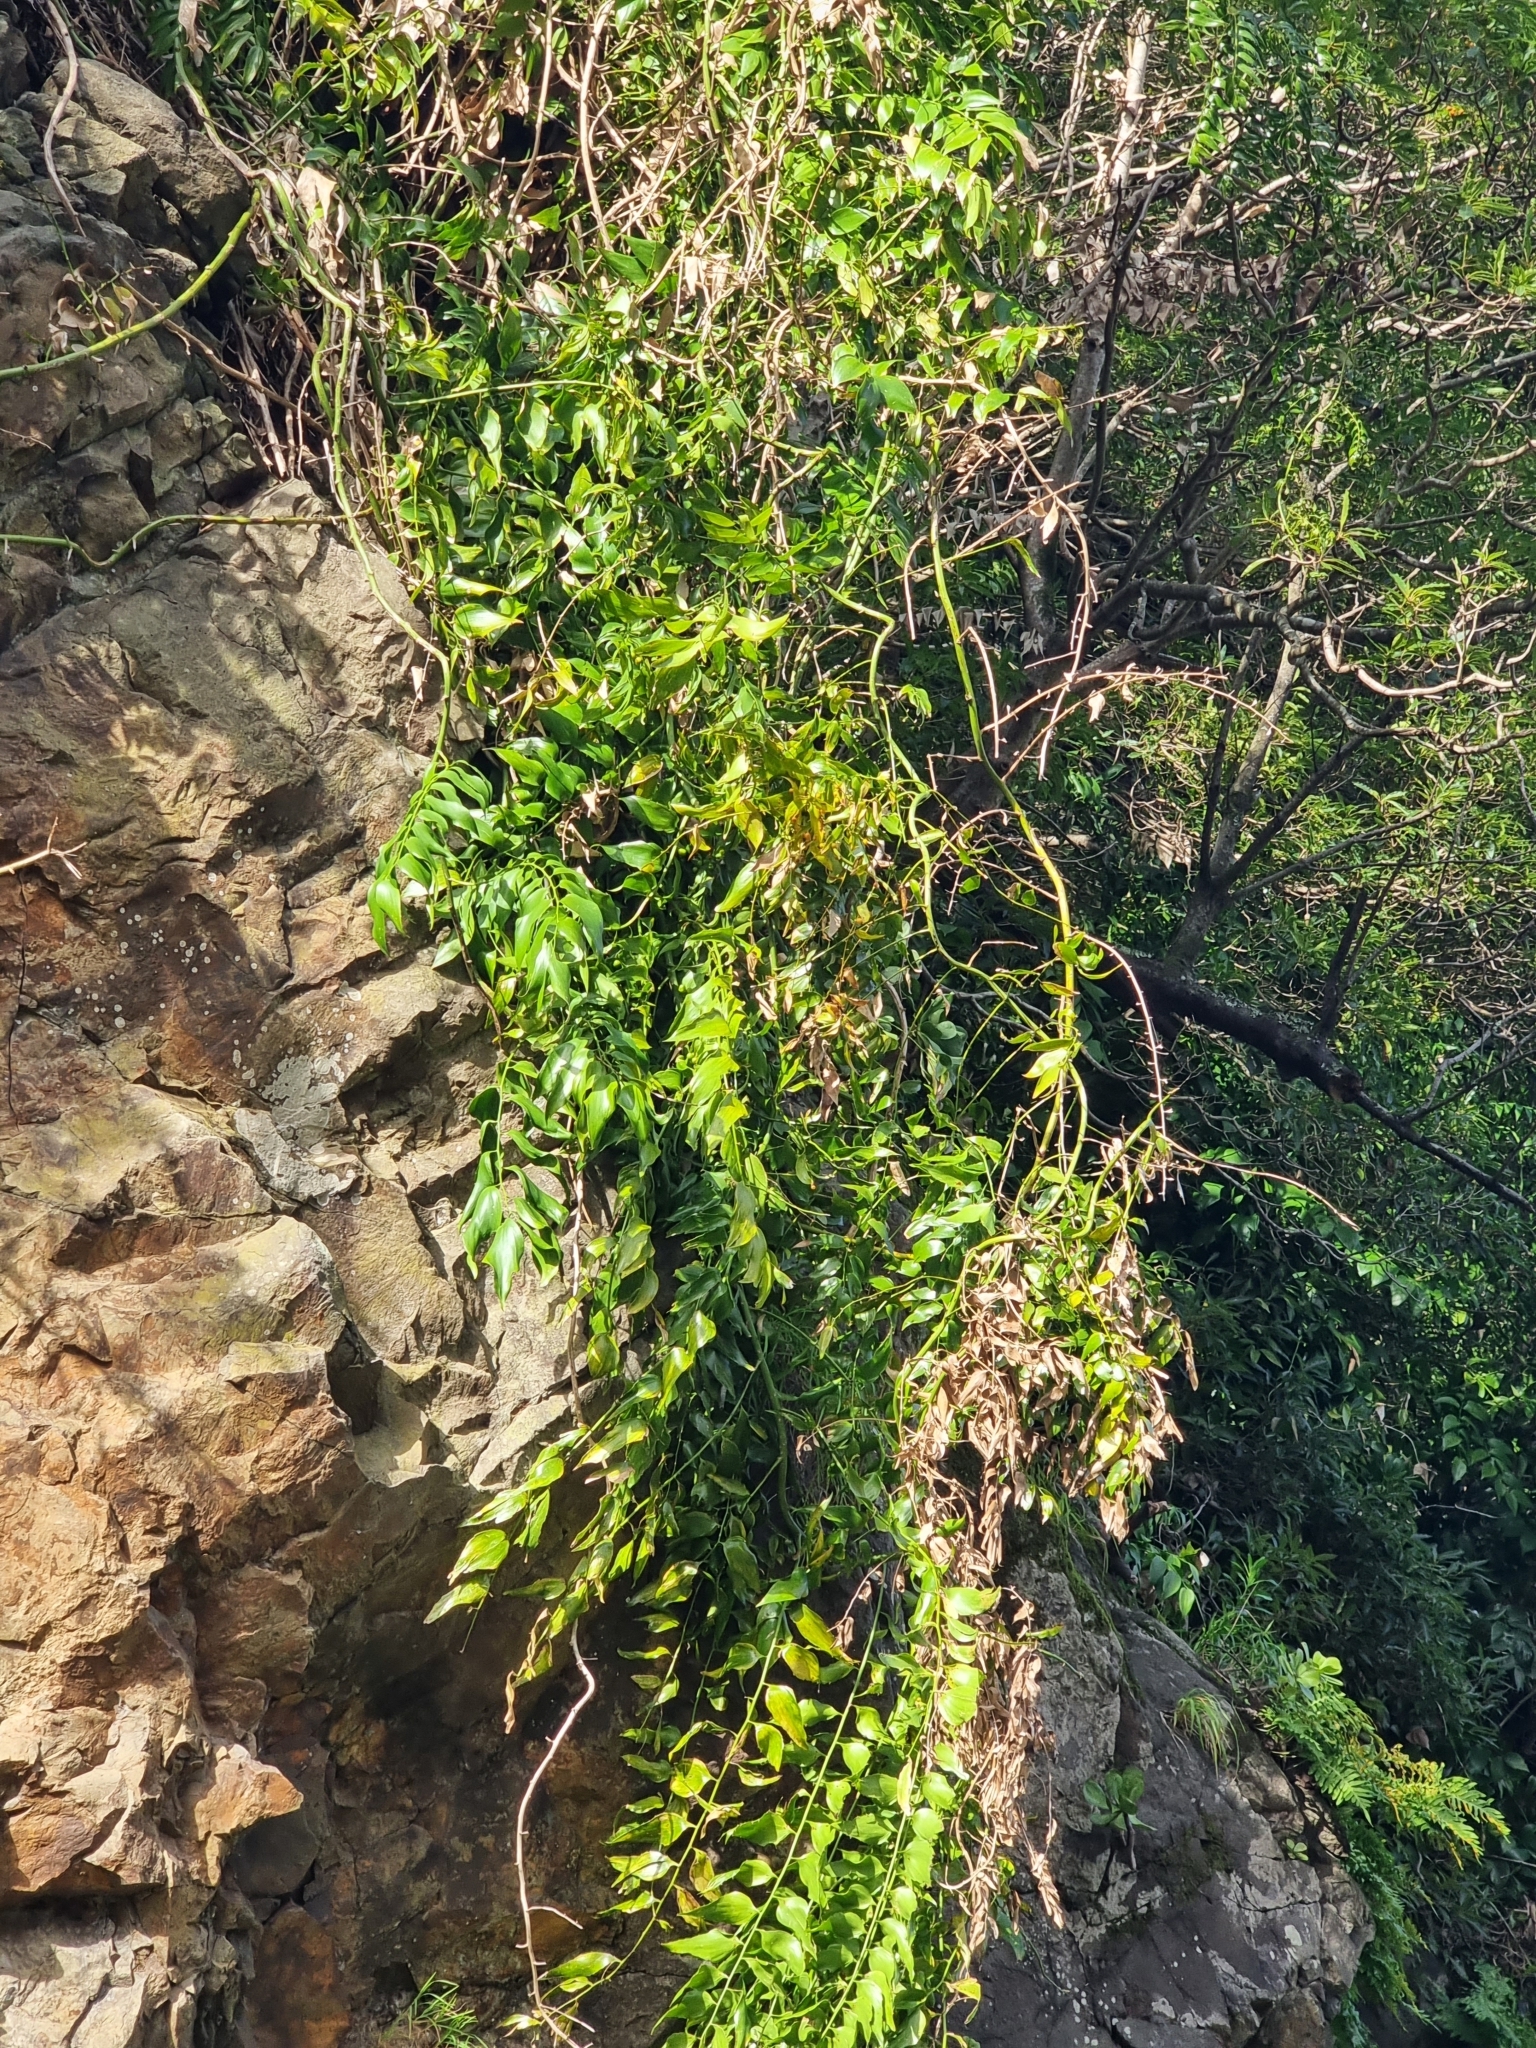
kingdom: Plantae
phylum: Tracheophyta
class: Liliopsida
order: Asparagales
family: Asparagaceae
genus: Semele
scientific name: Semele androgyna
